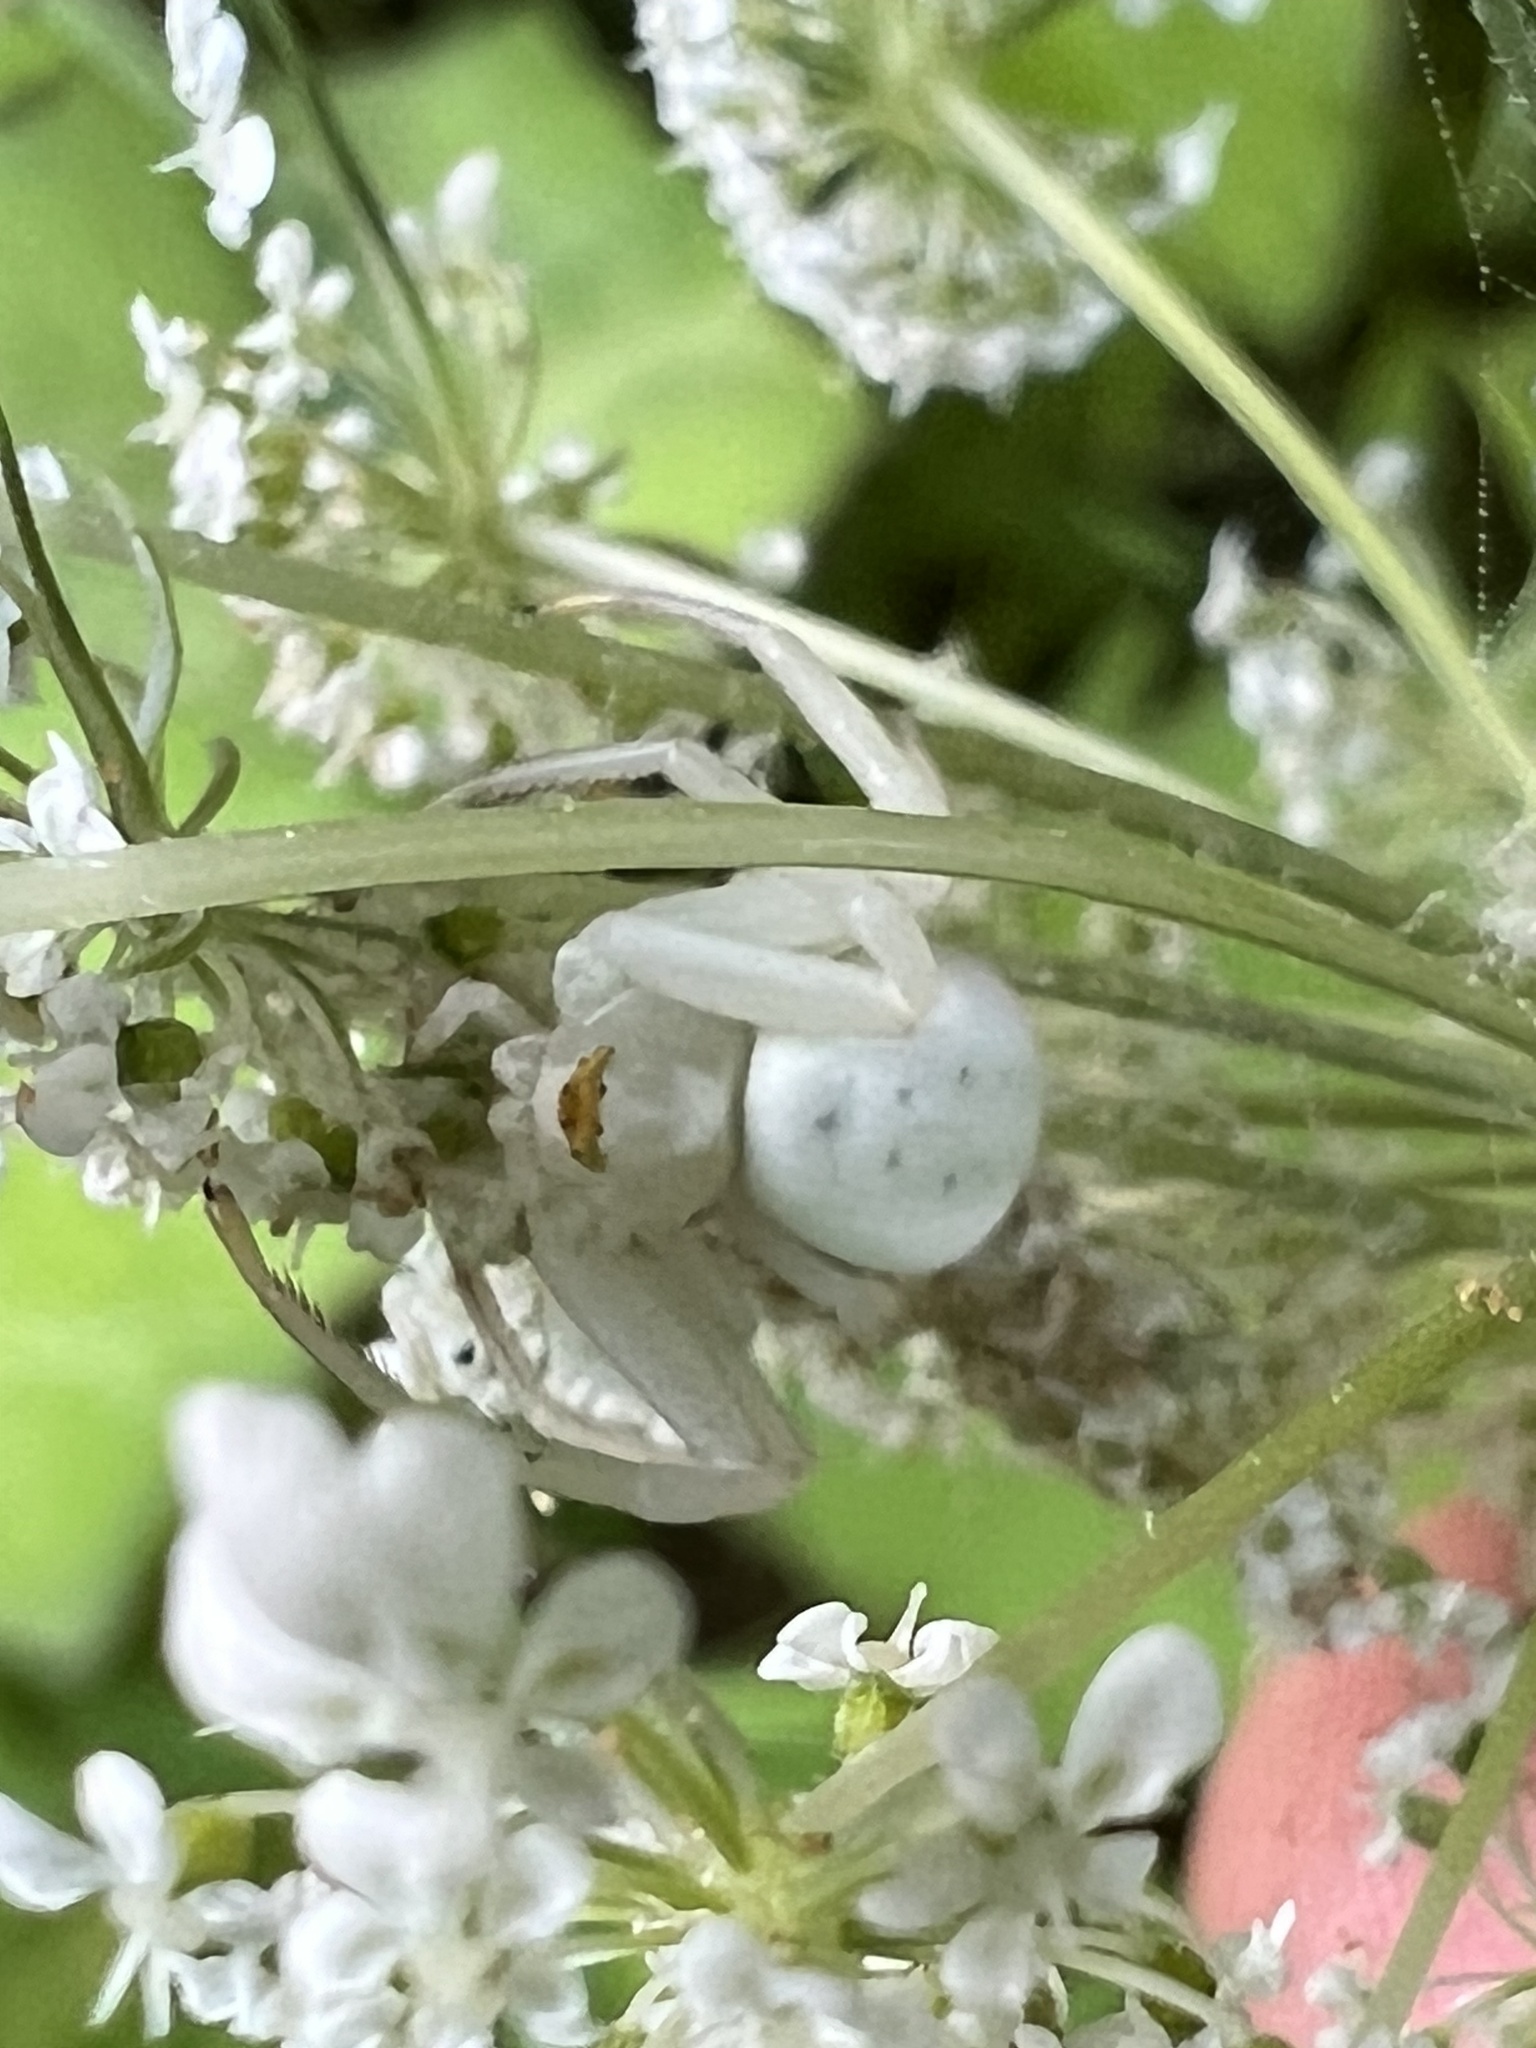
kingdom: Animalia
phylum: Arthropoda
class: Arachnida
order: Araneae
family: Thomisidae
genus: Misumena
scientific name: Misumena vatia
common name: Goldenrod crab spider
